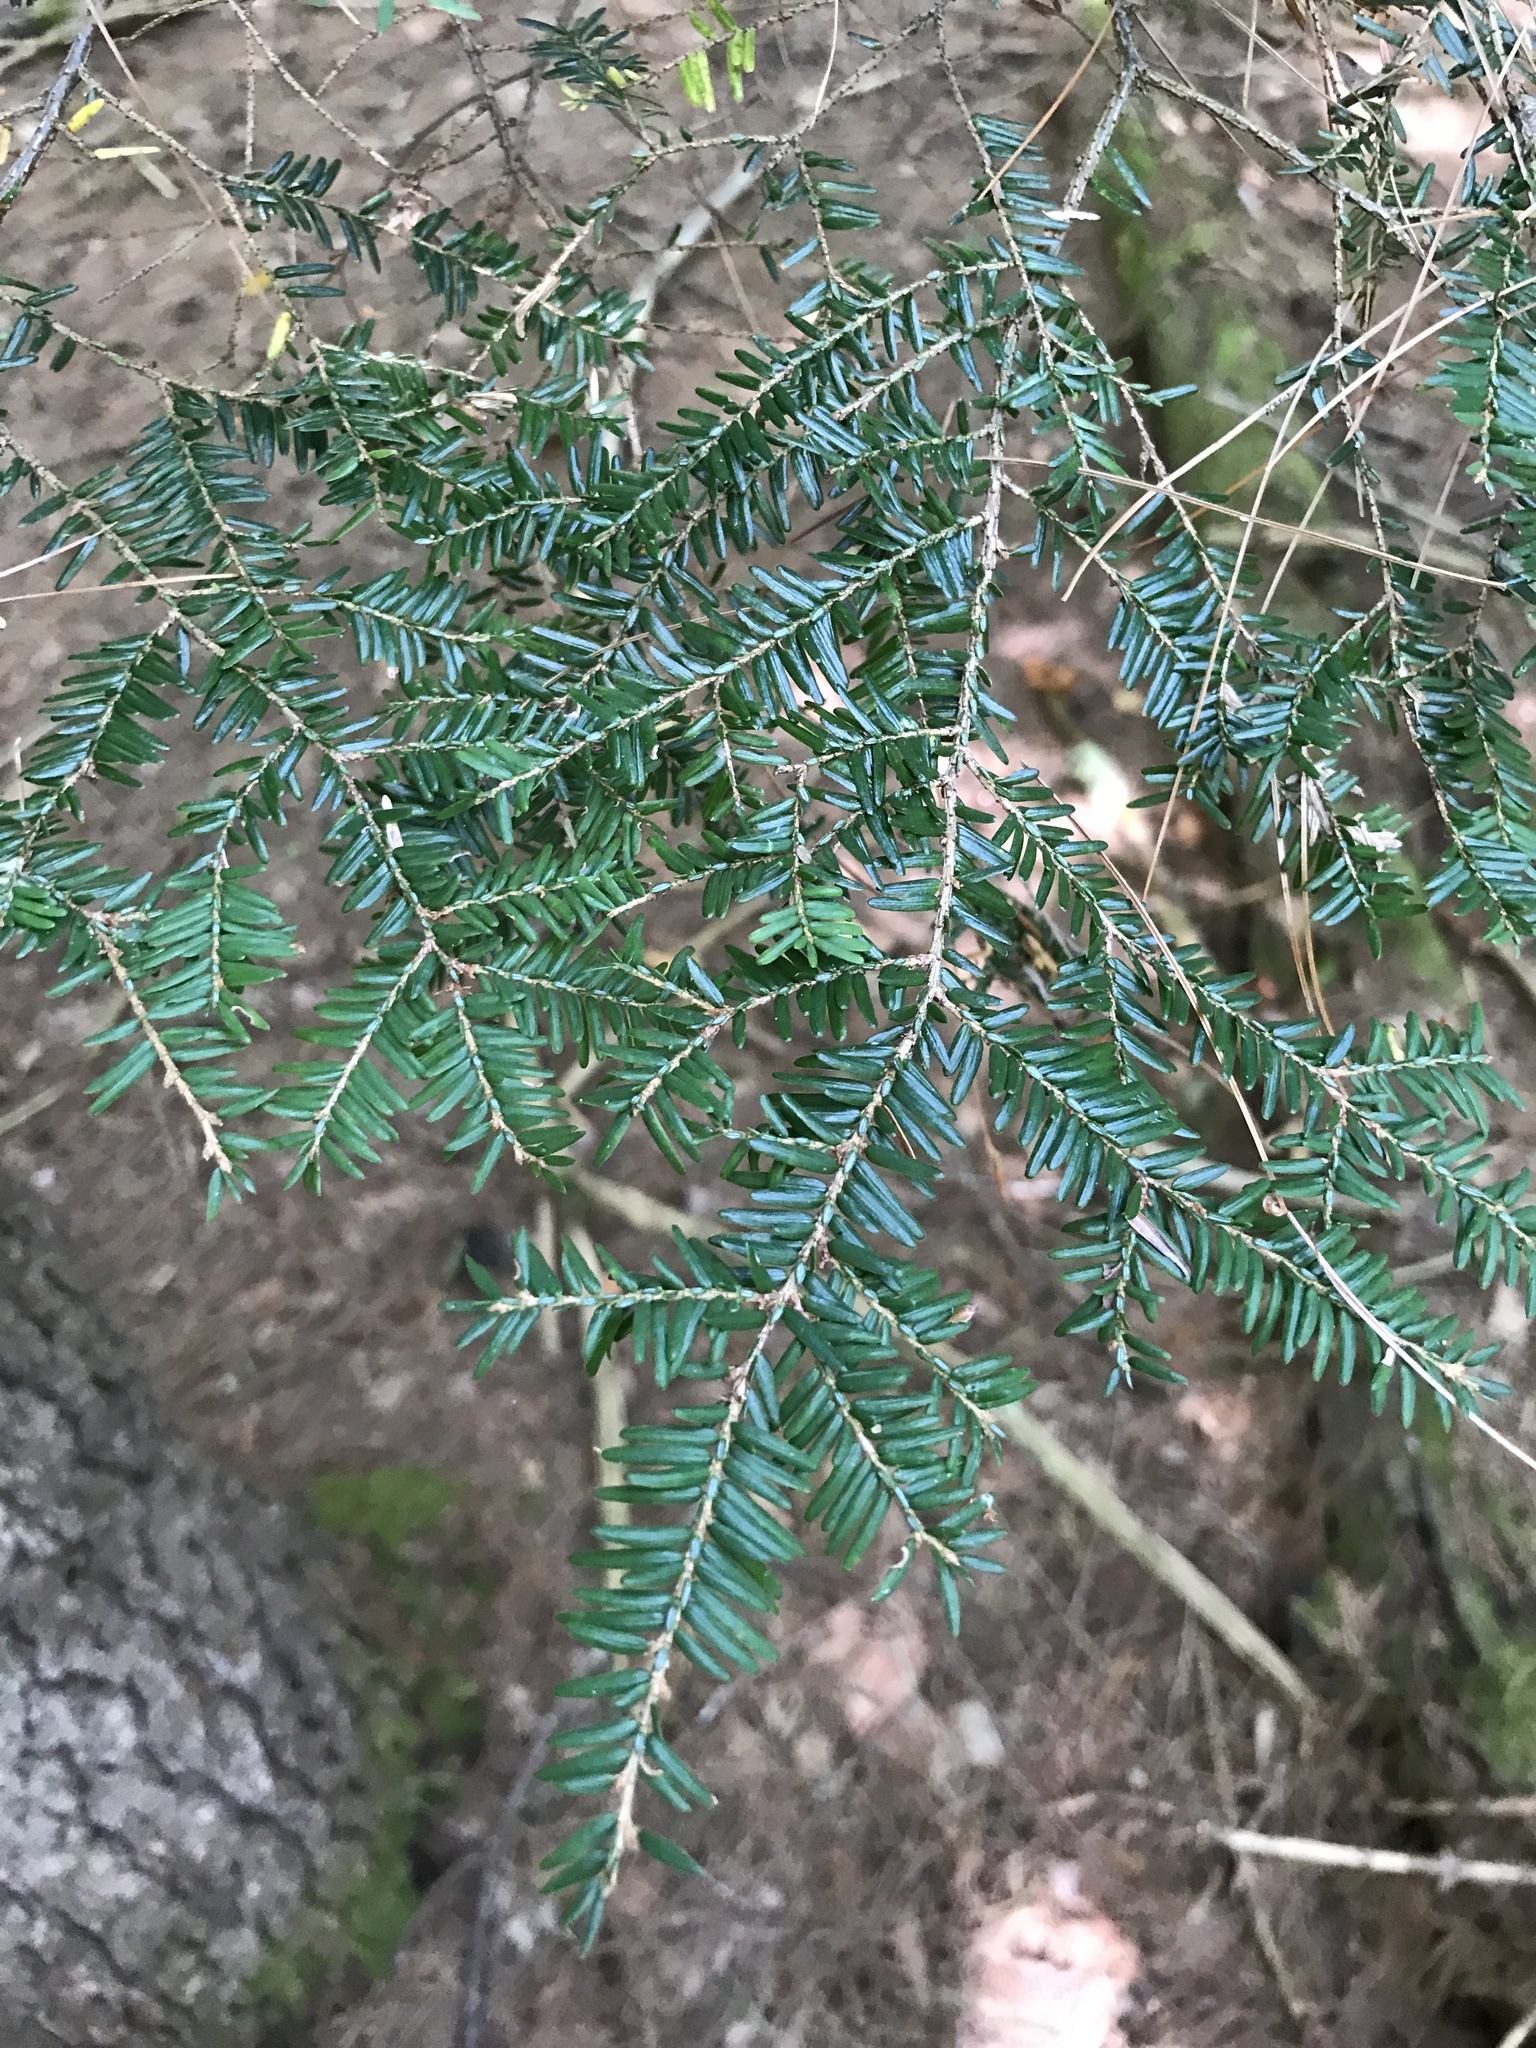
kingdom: Plantae
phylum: Tracheophyta
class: Pinopsida
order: Pinales
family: Pinaceae
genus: Tsuga
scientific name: Tsuga canadensis
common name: Eastern hemlock
